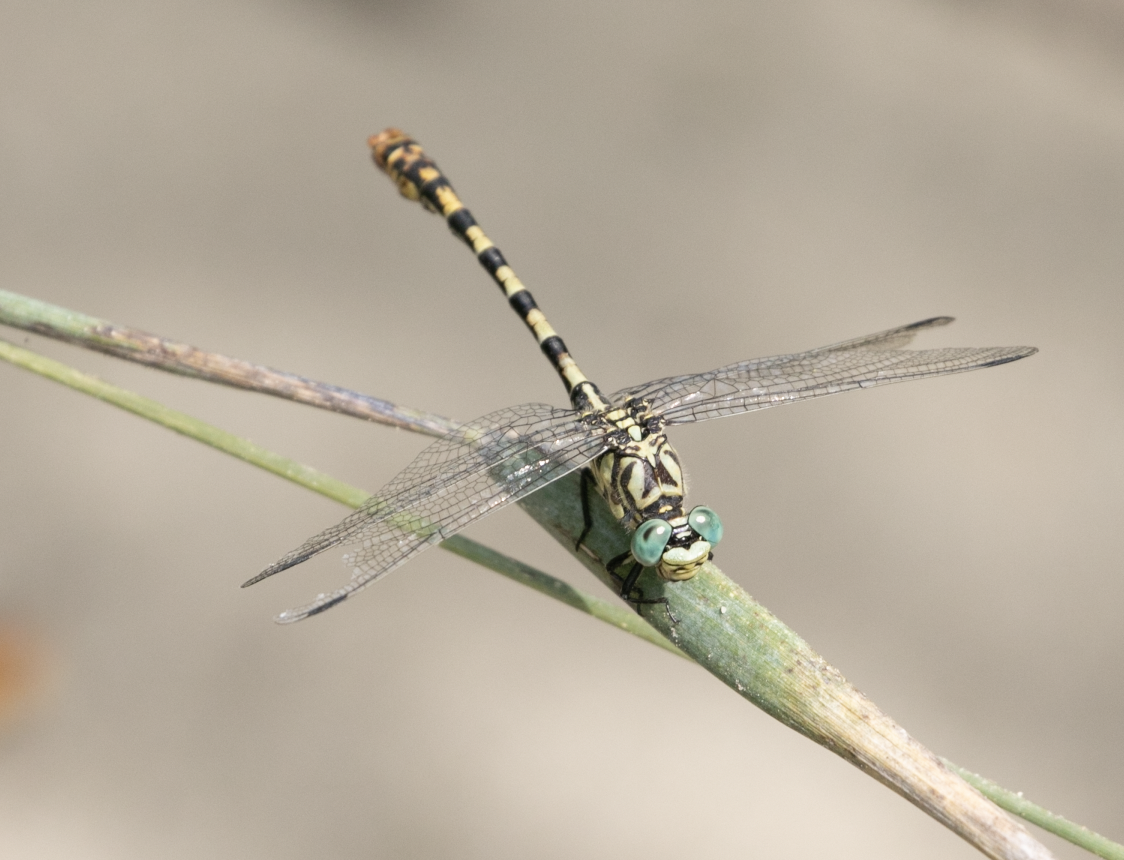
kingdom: Animalia
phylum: Arthropoda
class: Insecta
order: Odonata
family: Gomphidae
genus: Onychogomphus
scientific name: Onychogomphus forcipatus
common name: Small pincertail
